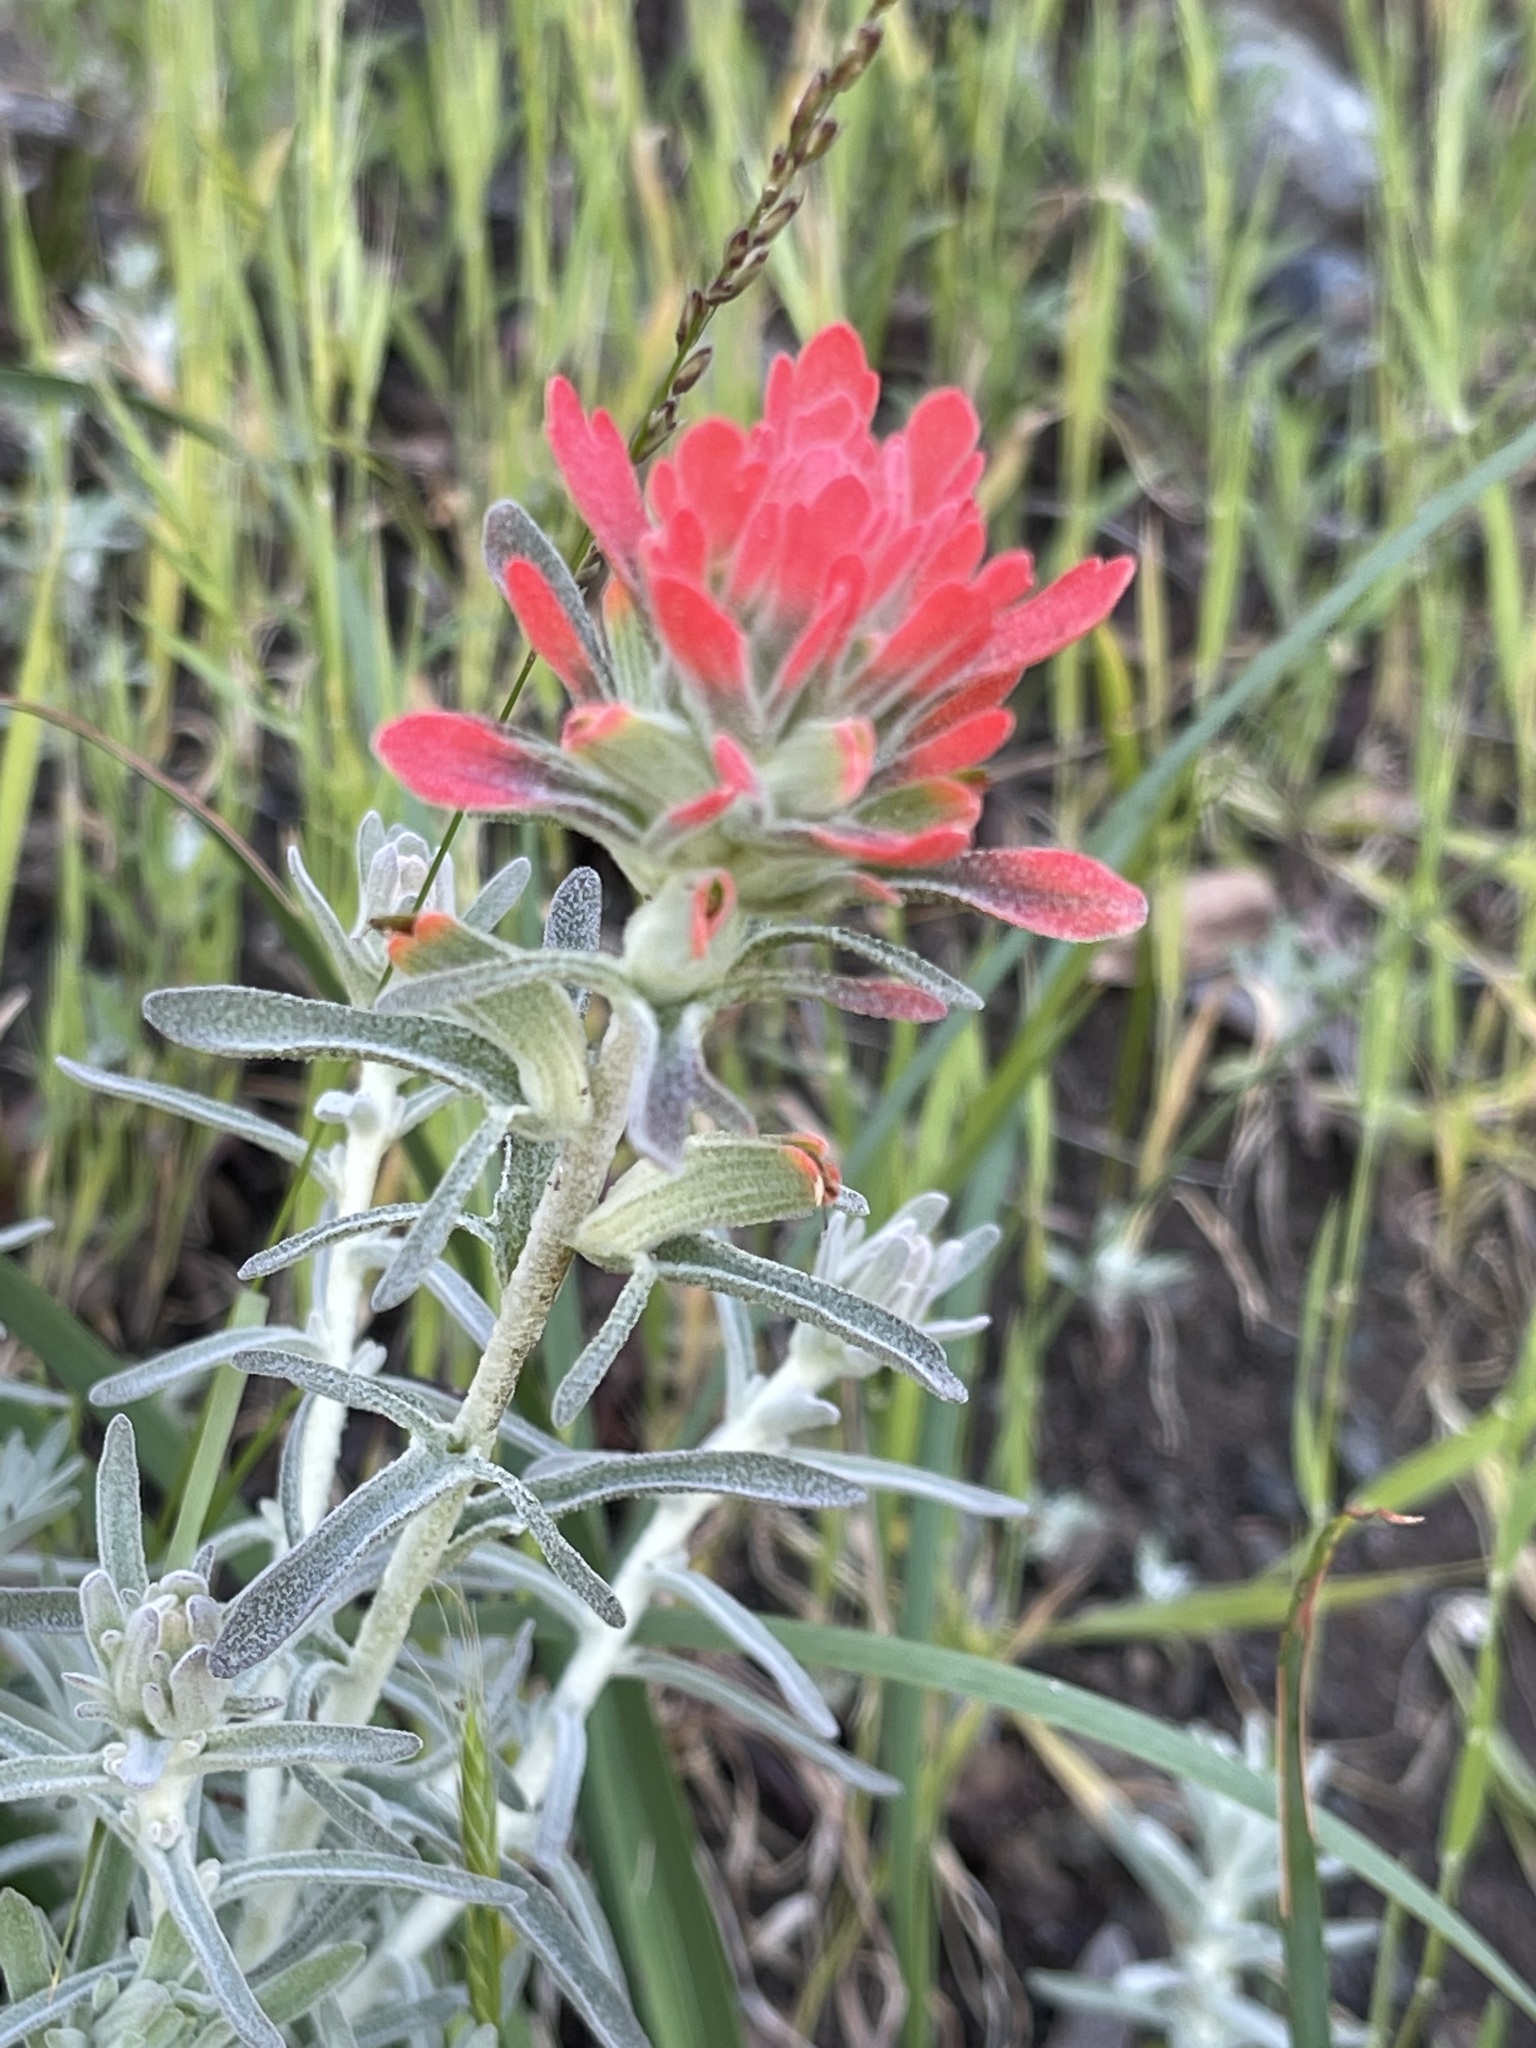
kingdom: Plantae
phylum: Tracheophyta
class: Magnoliopsida
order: Lamiales
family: Orobanchaceae
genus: Castilleja
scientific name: Castilleja foliolosa
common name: Woolly indian paintbrush
